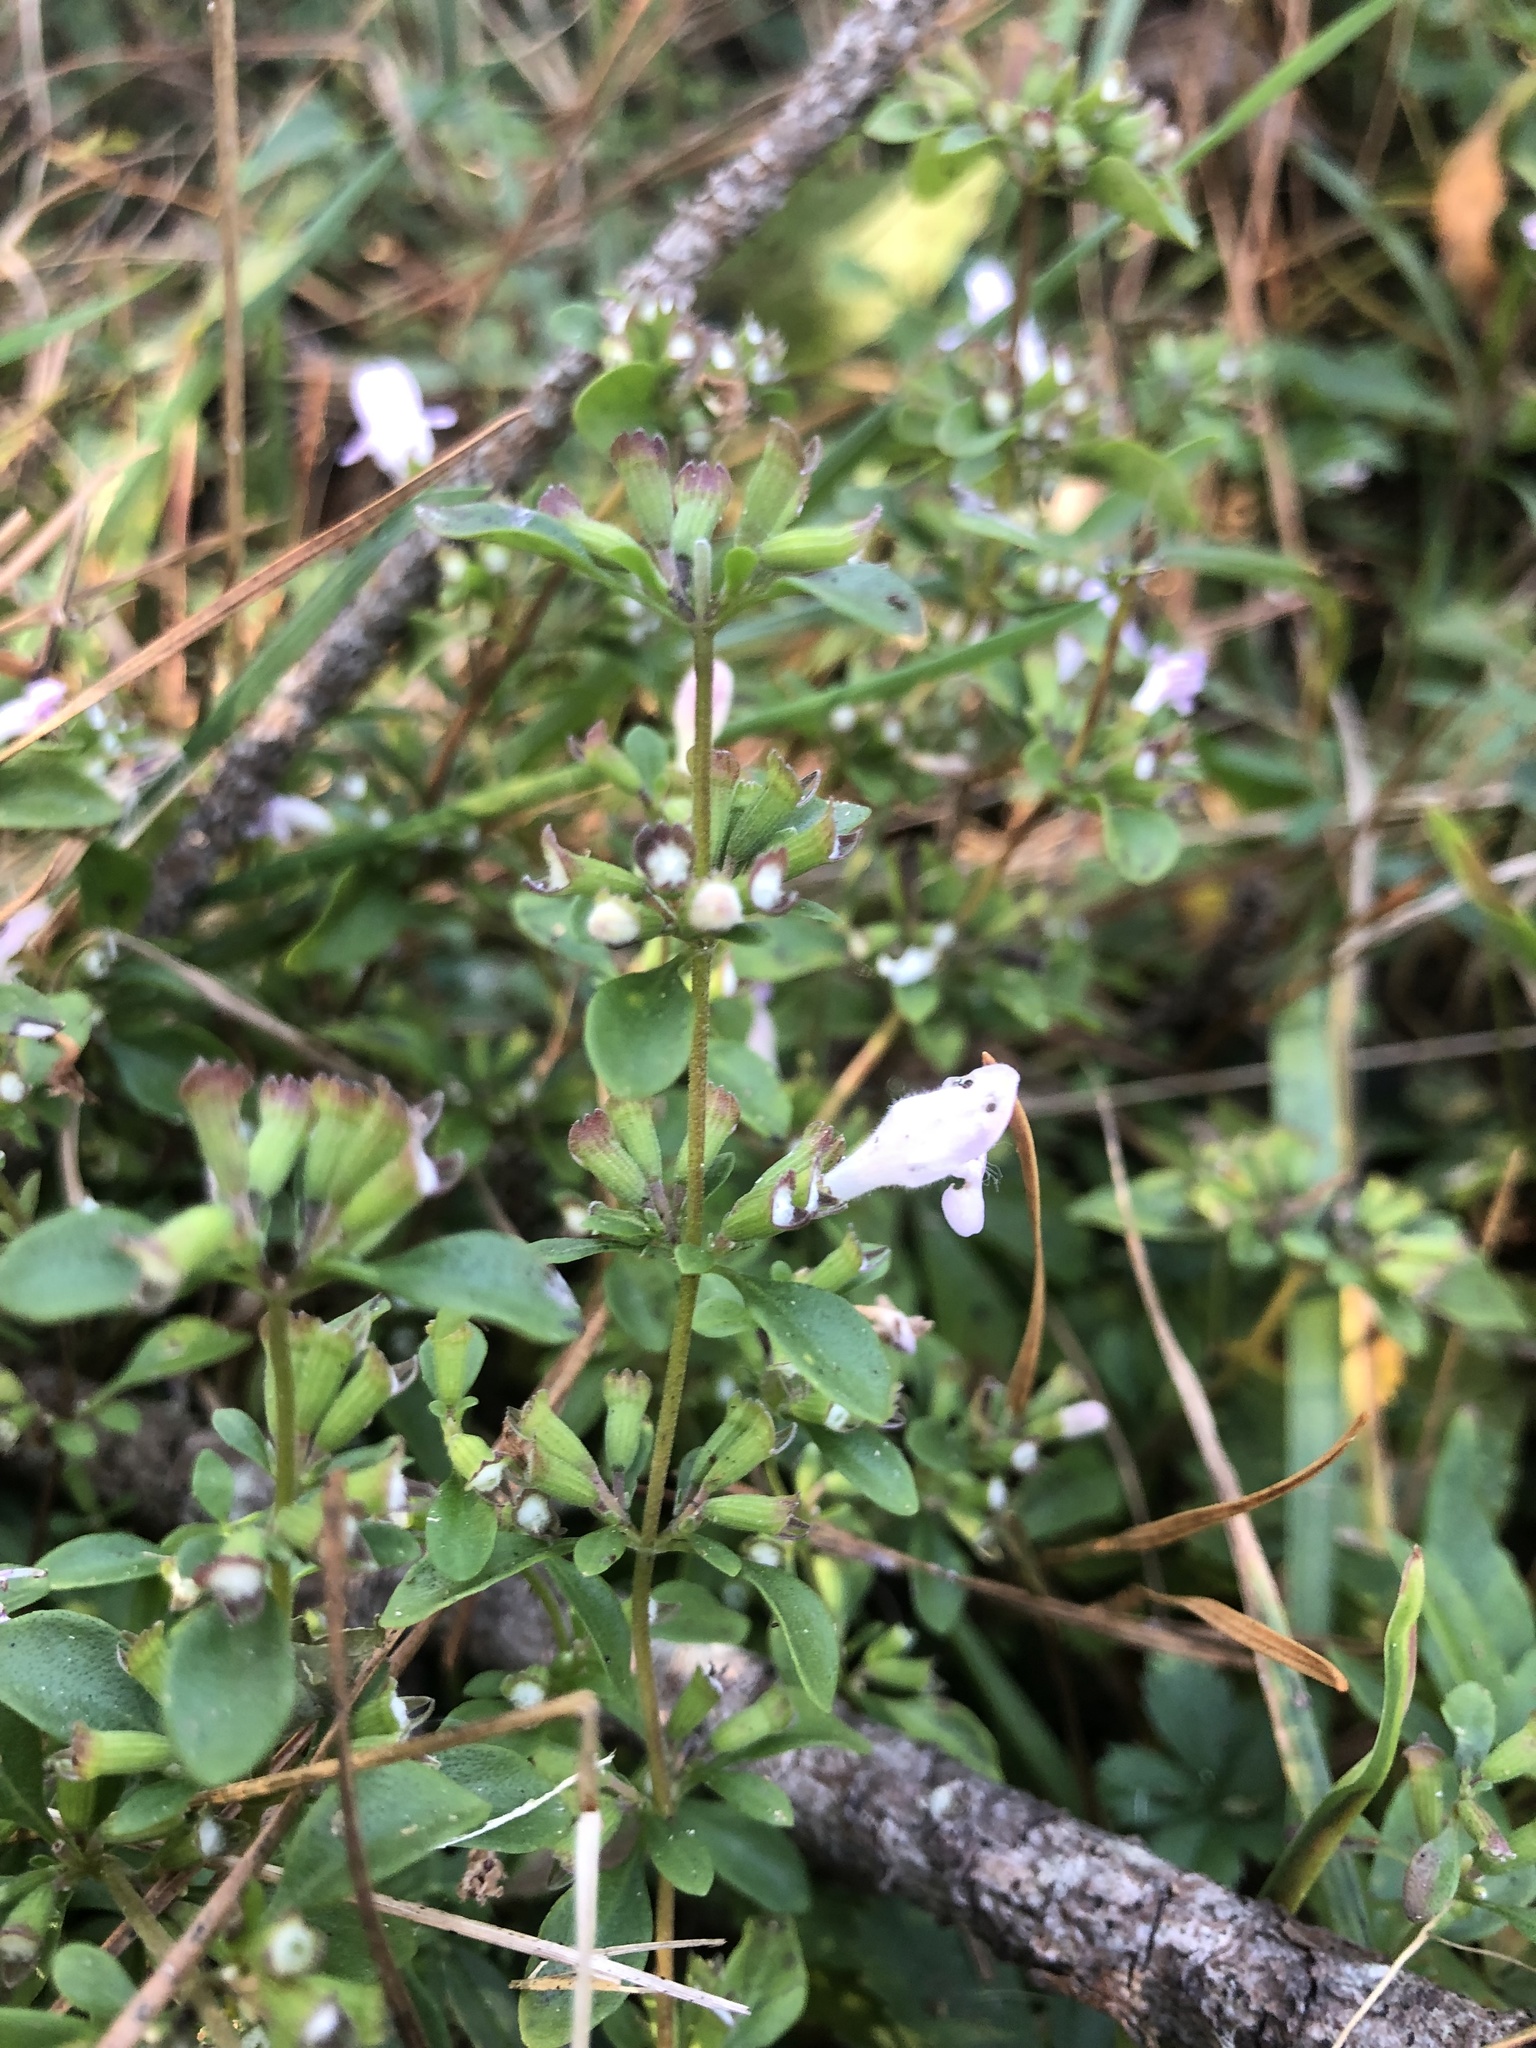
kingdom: Plantae
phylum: Tracheophyta
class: Magnoliopsida
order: Lamiales
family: Lamiaceae
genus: Clinopodium
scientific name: Clinopodium carolinianum
